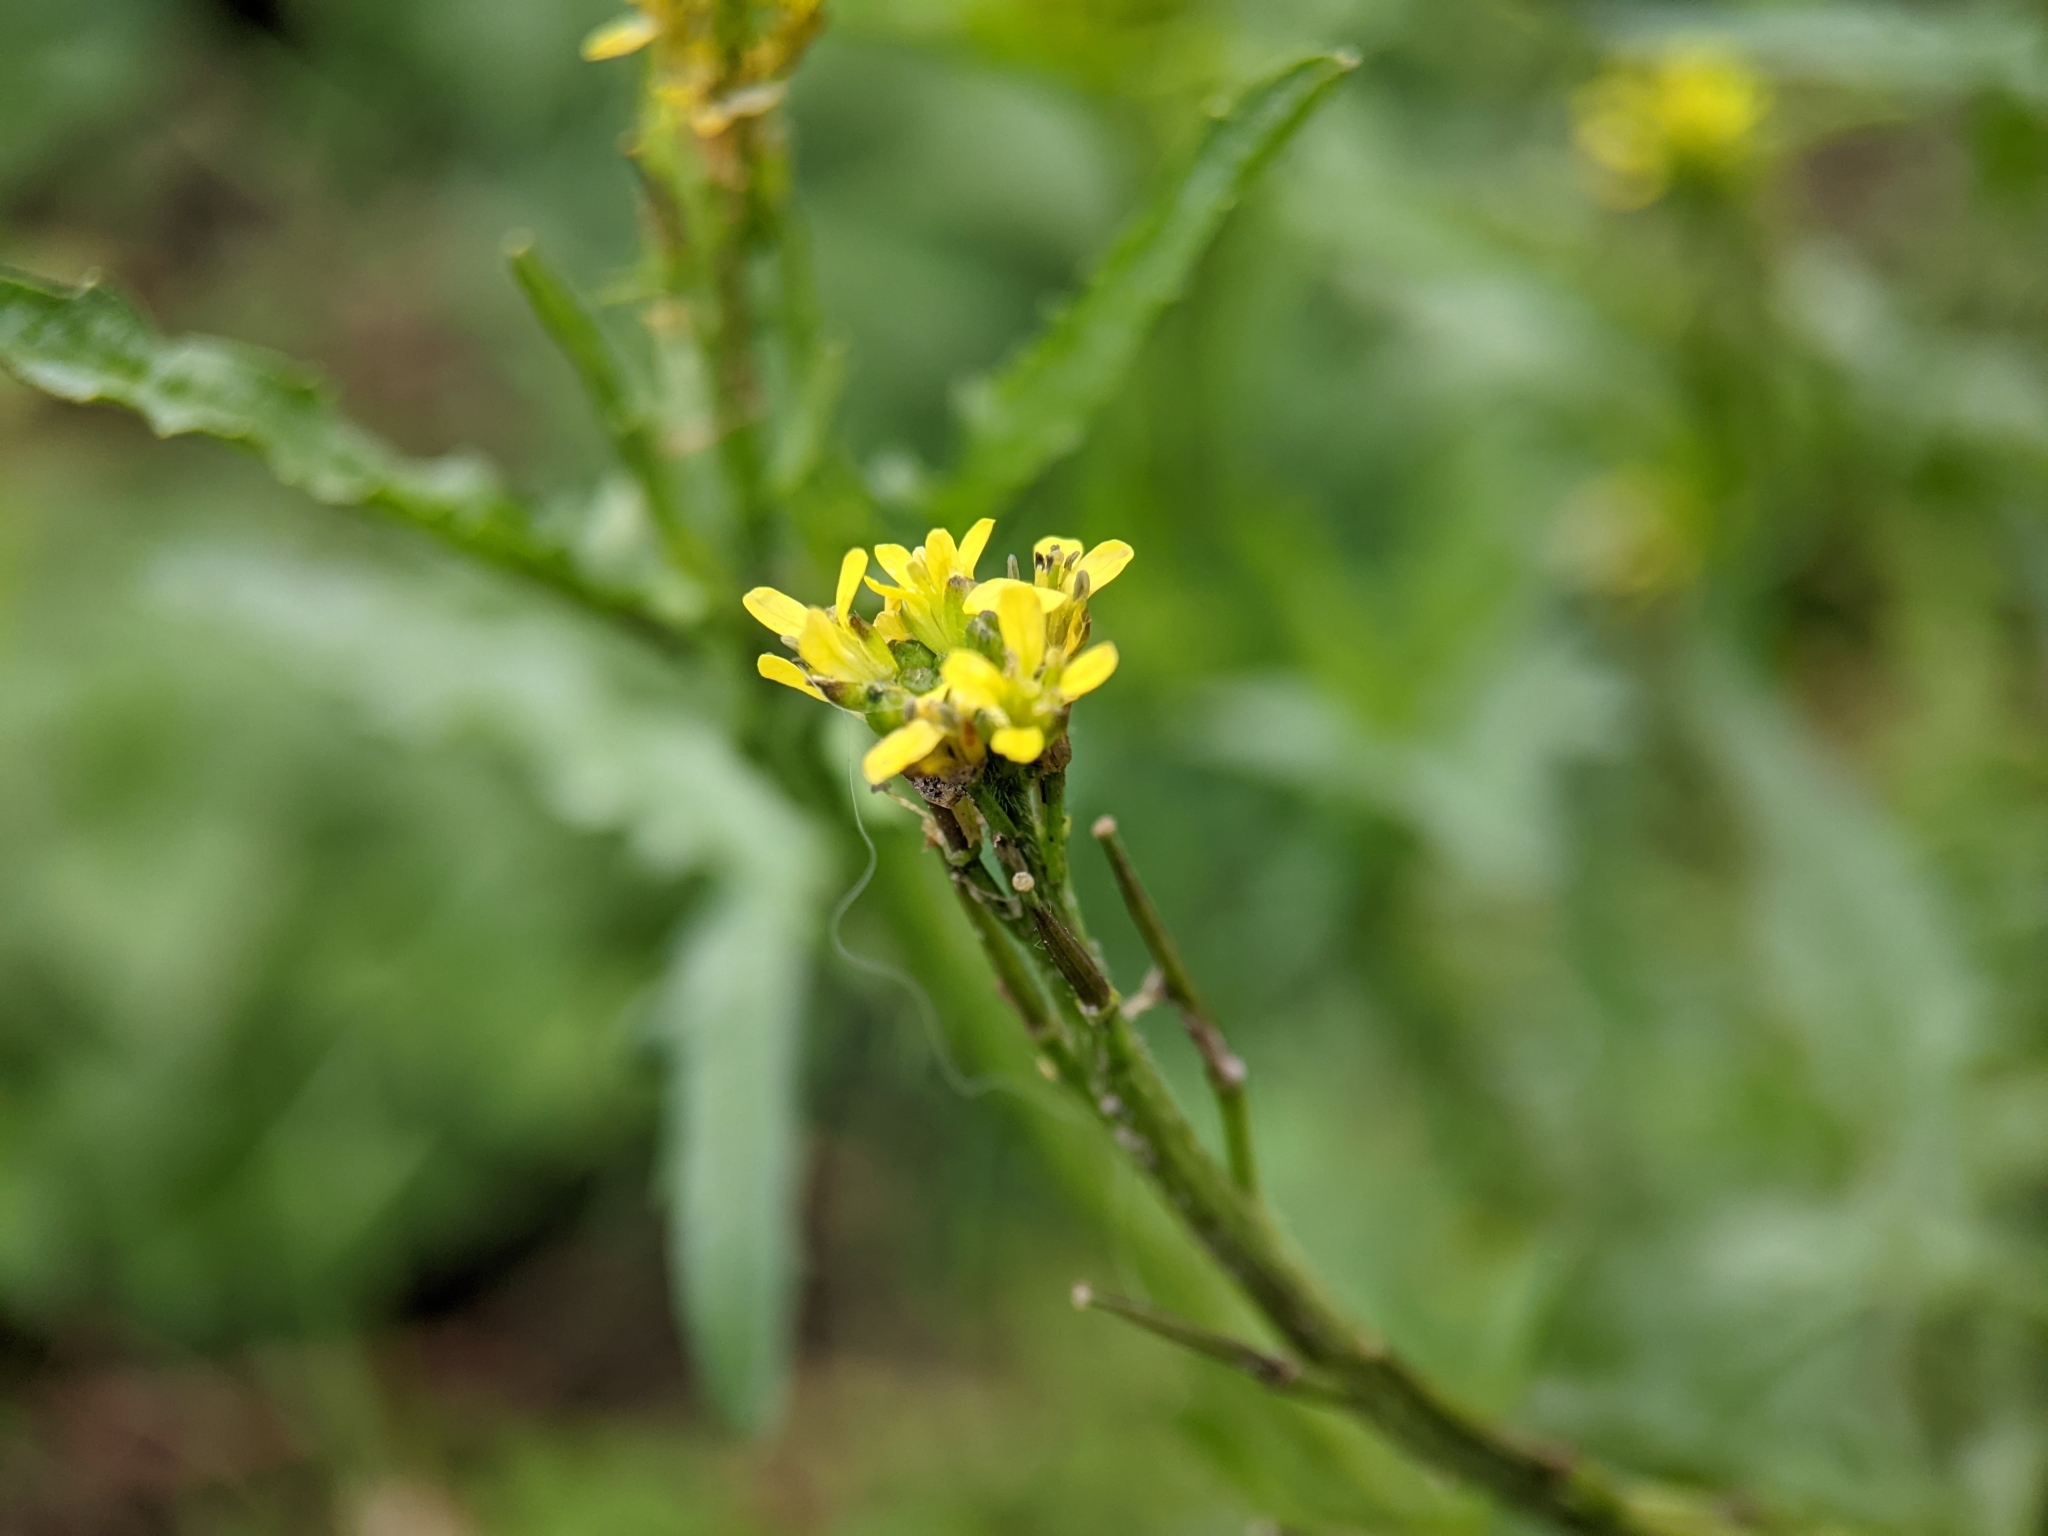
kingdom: Plantae
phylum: Tracheophyta
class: Magnoliopsida
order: Brassicales
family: Brassicaceae
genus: Sisymbrium
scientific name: Sisymbrium officinale
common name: Hedge mustard
